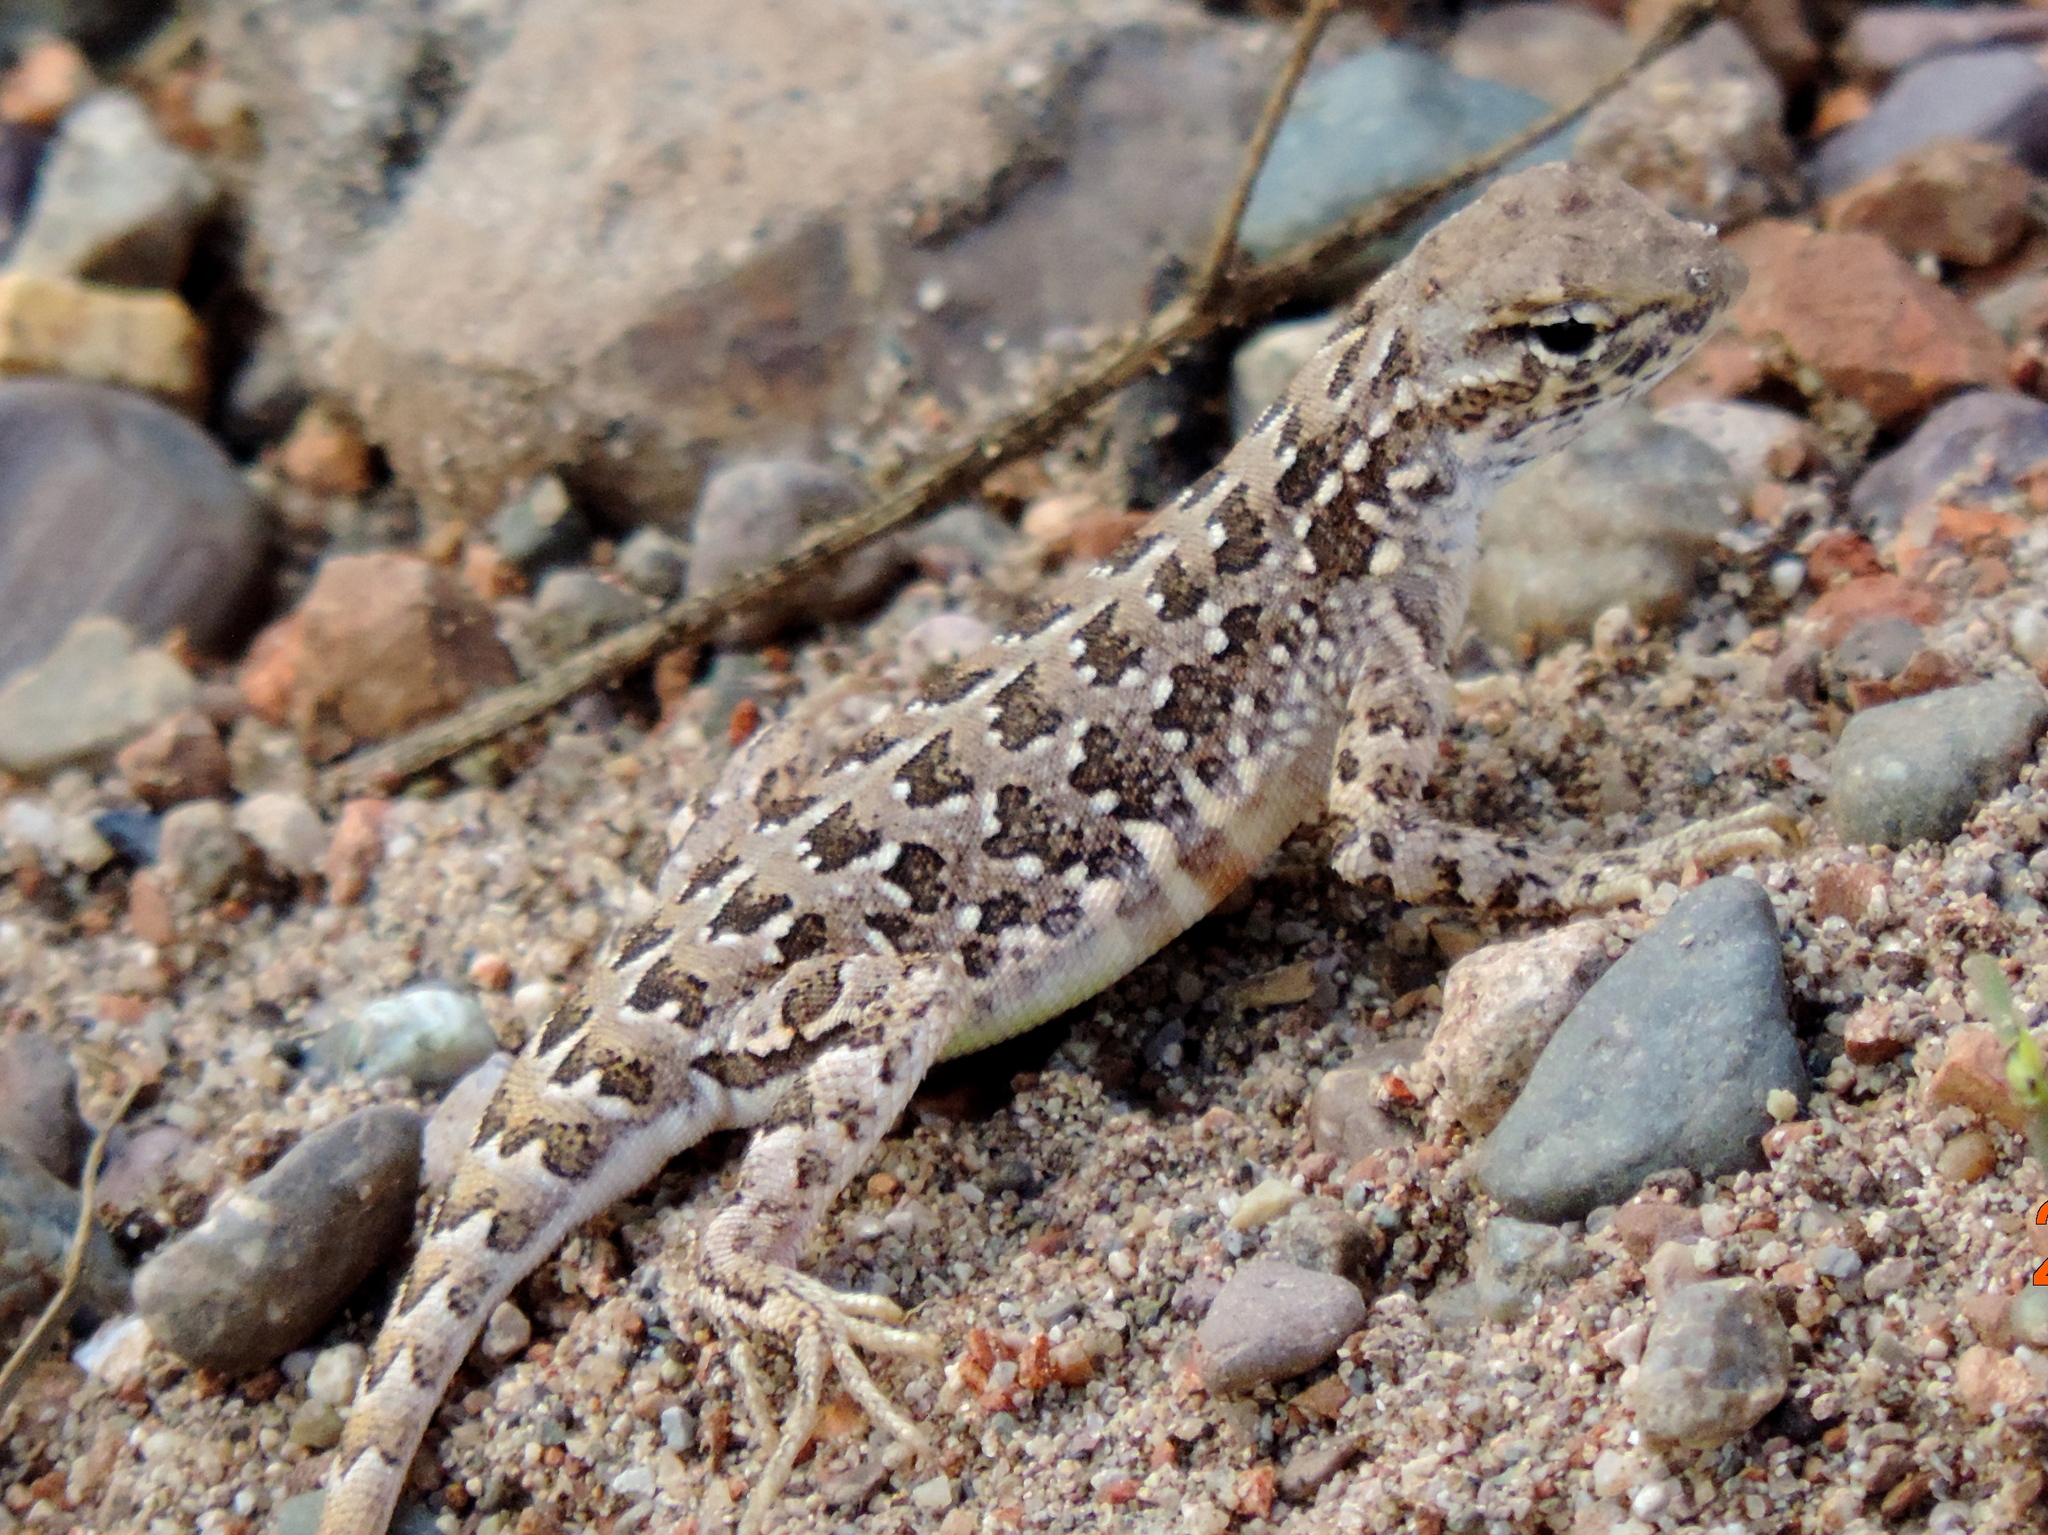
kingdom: Animalia
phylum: Chordata
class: Squamata
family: Phrynosomatidae
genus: Holbrookia
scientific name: Holbrookia elegans
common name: Elegant earless lizard
